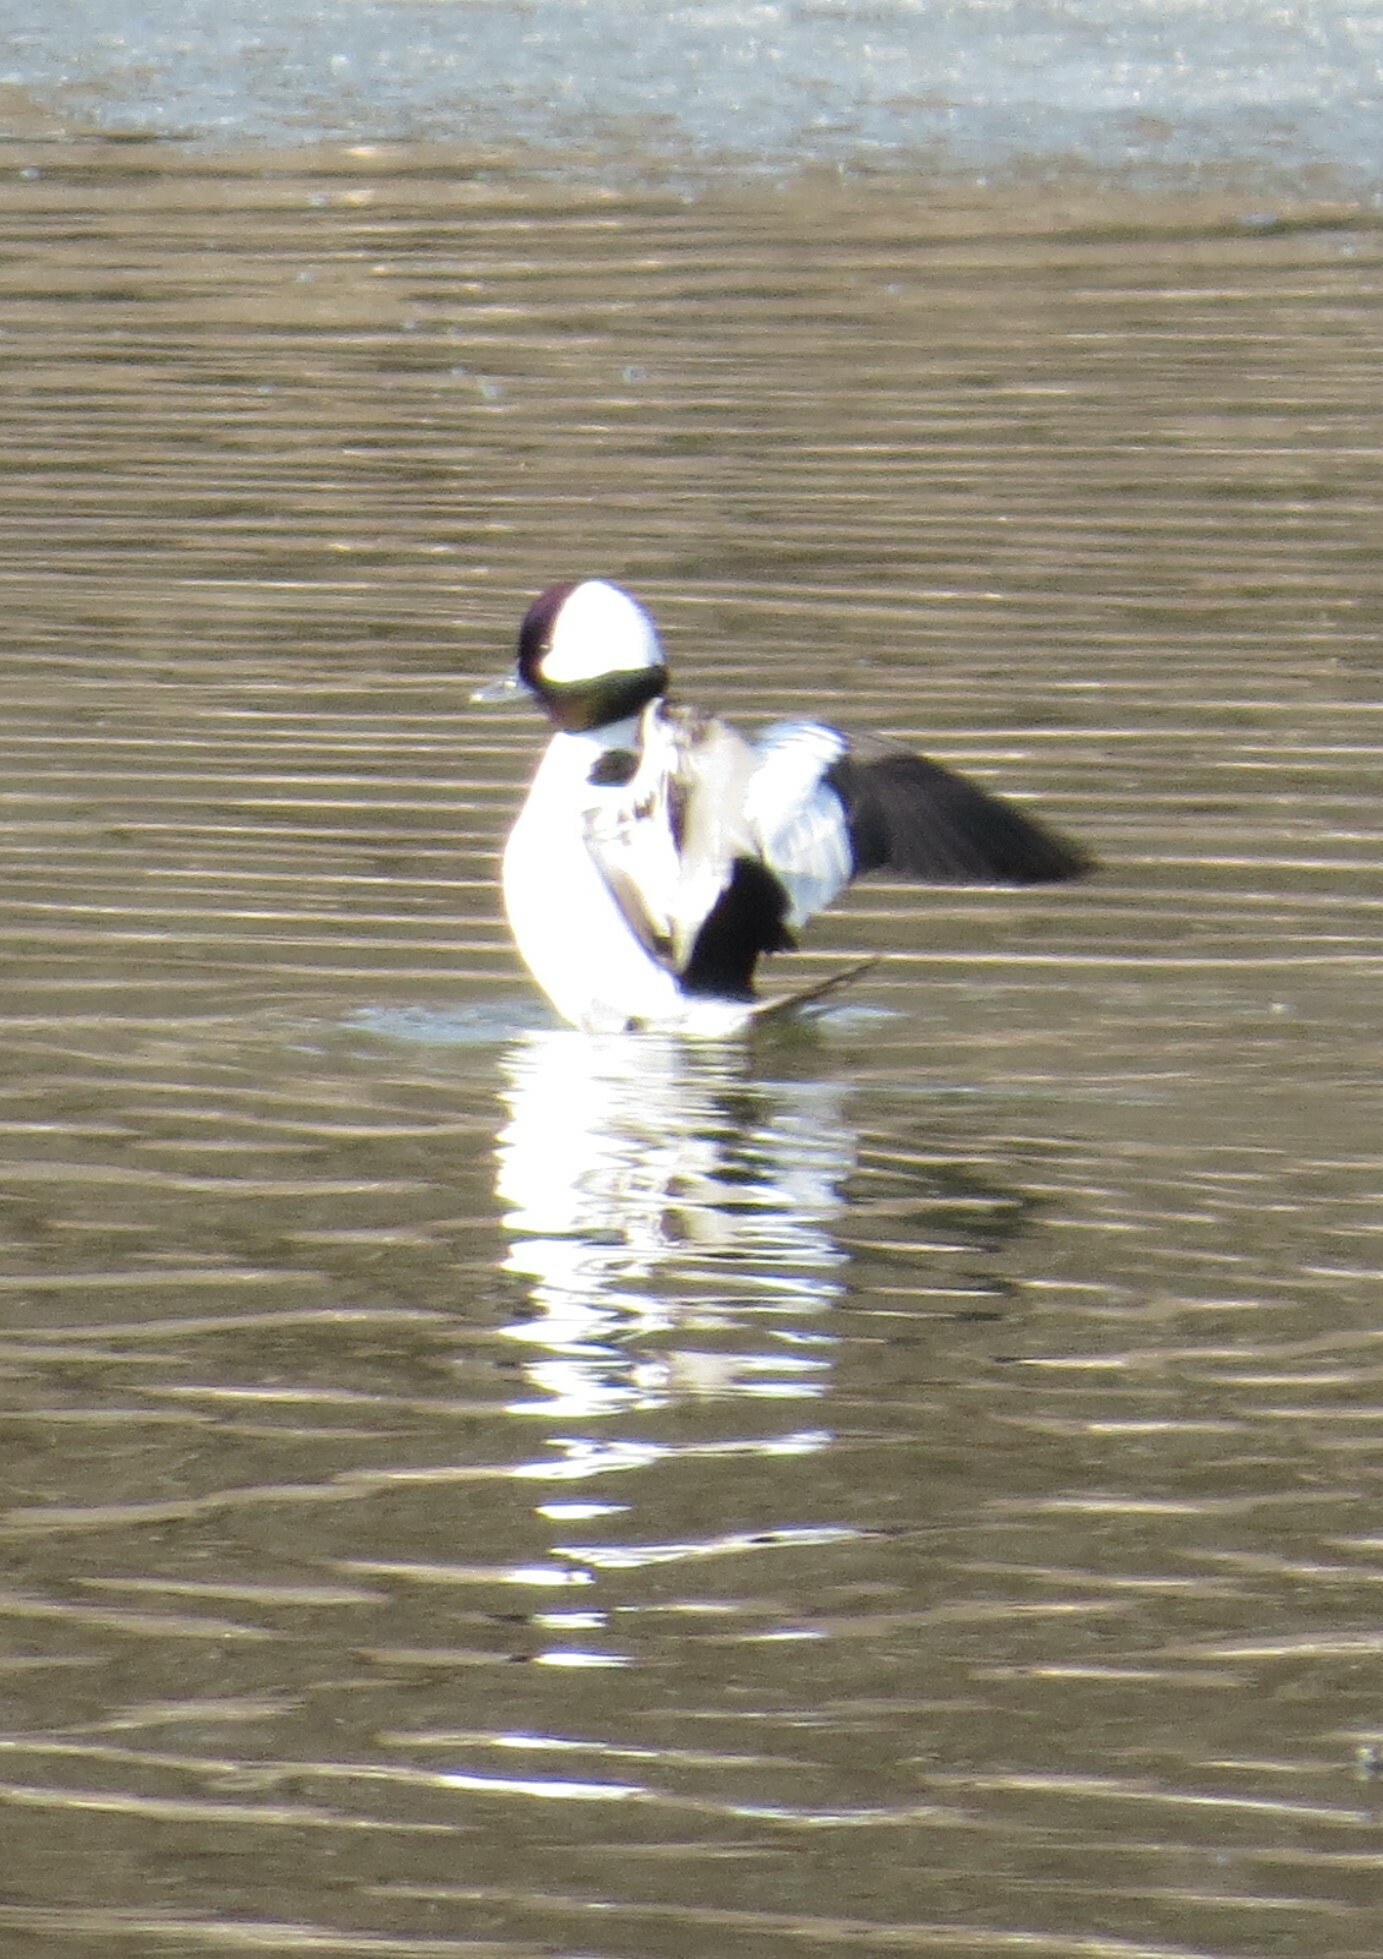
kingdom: Animalia
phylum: Chordata
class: Aves
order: Anseriformes
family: Anatidae
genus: Bucephala
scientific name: Bucephala albeola
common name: Bufflehead
